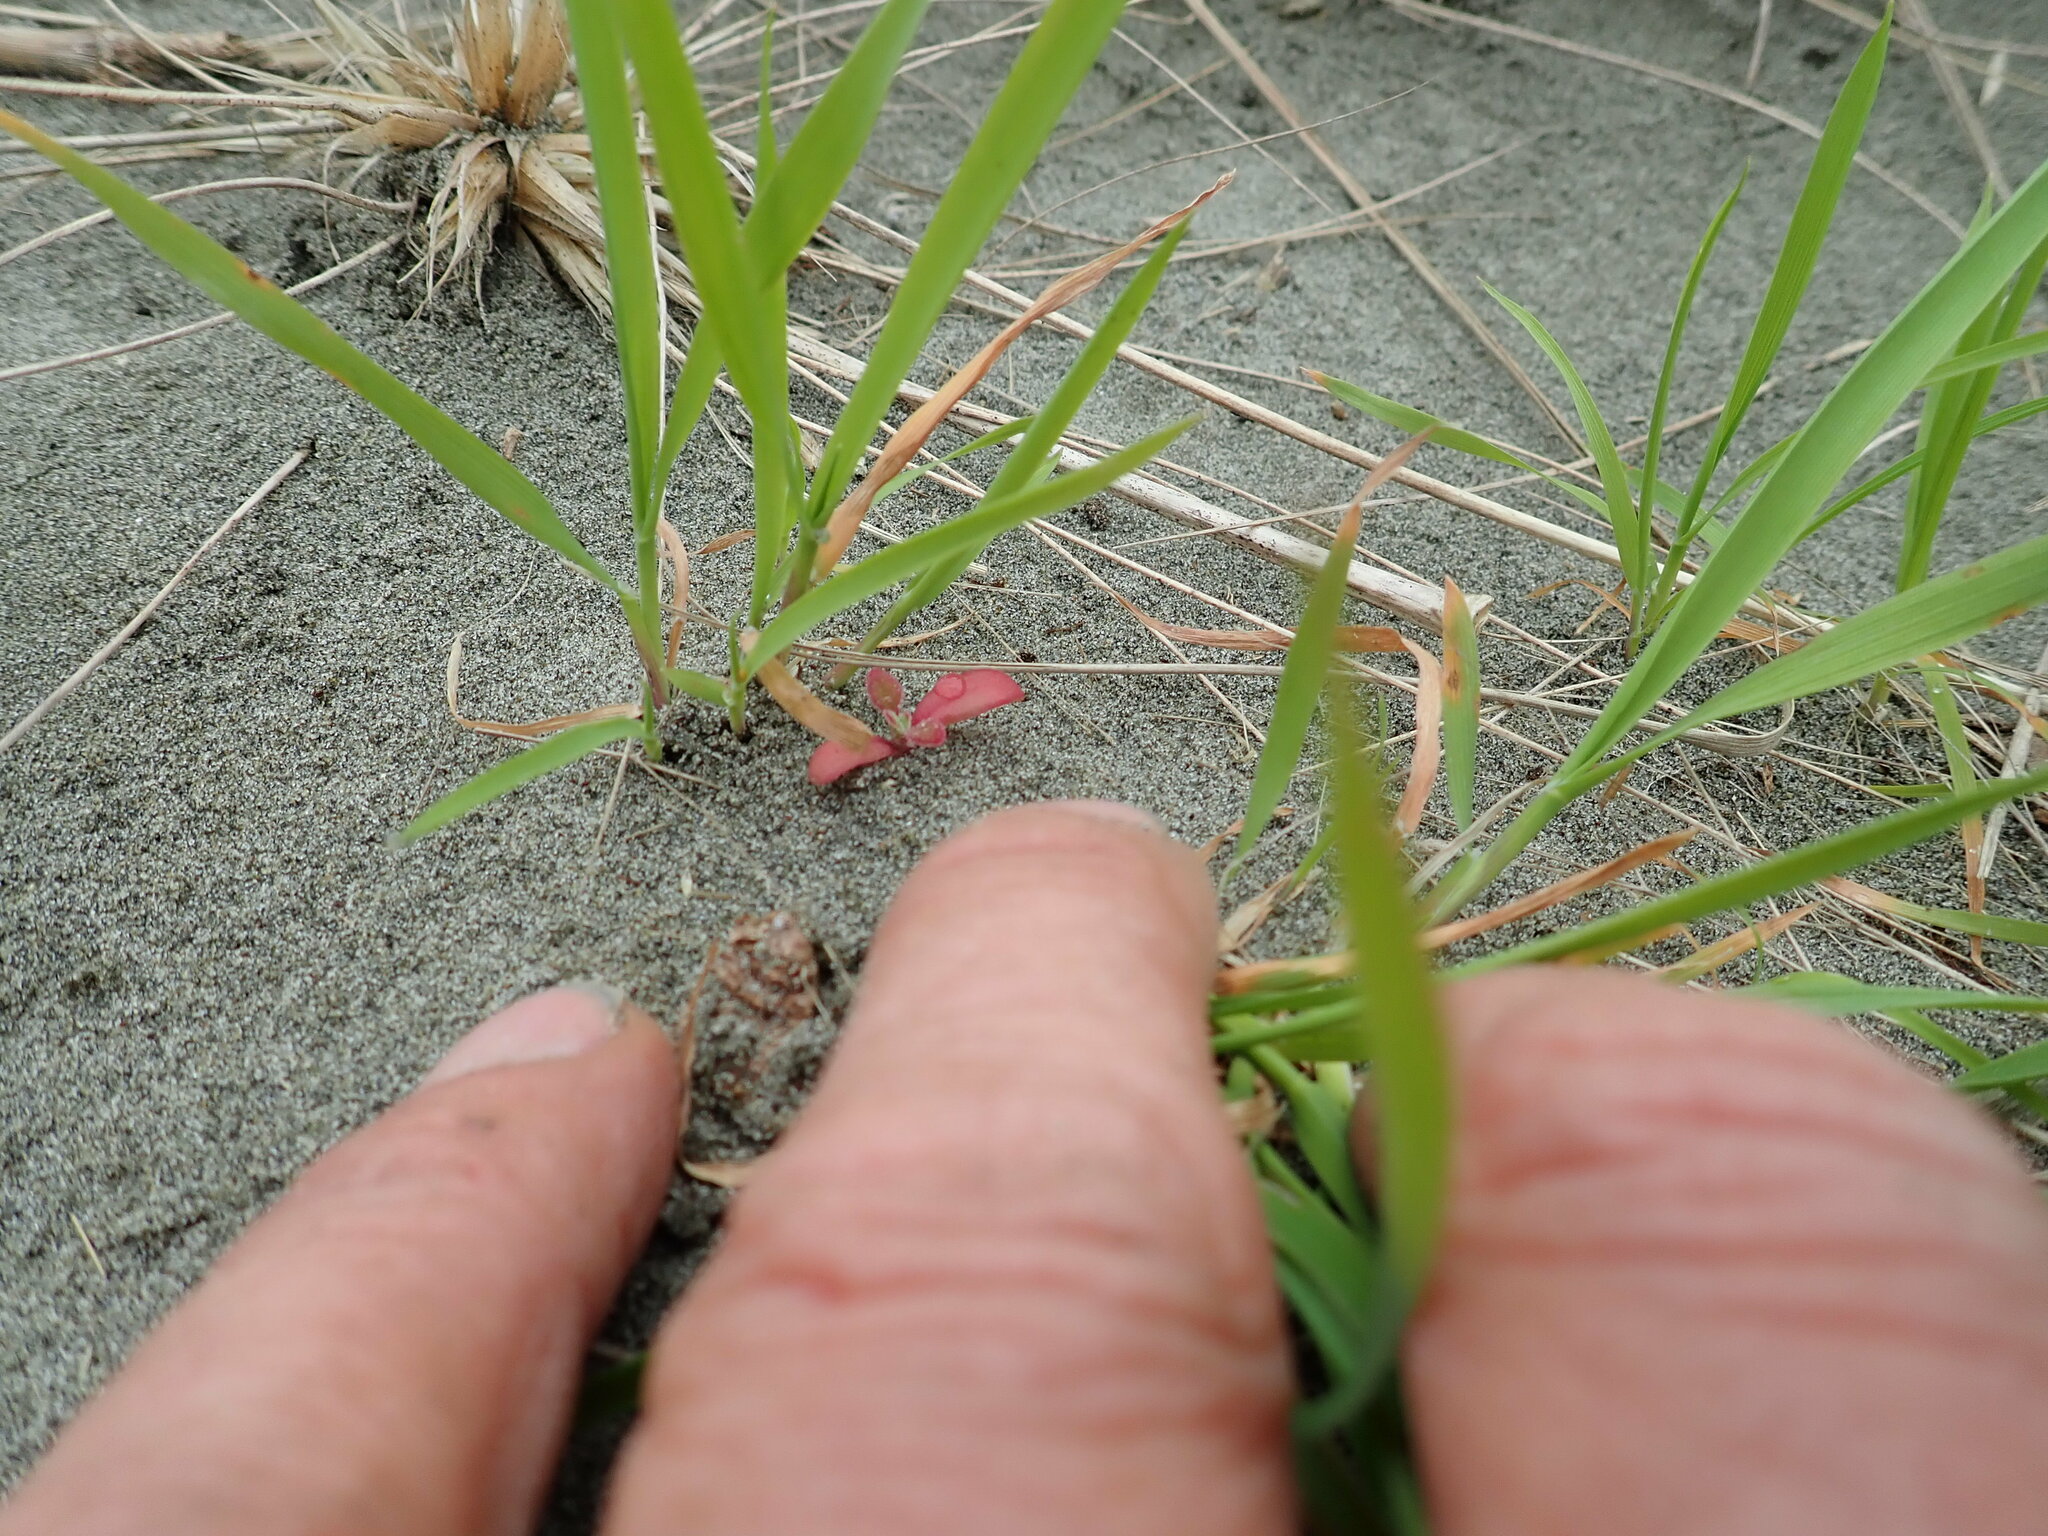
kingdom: Plantae
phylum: Tracheophyta
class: Magnoliopsida
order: Caryophyllales
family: Aizoaceae
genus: Tetragonia
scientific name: Tetragonia implexicoma
